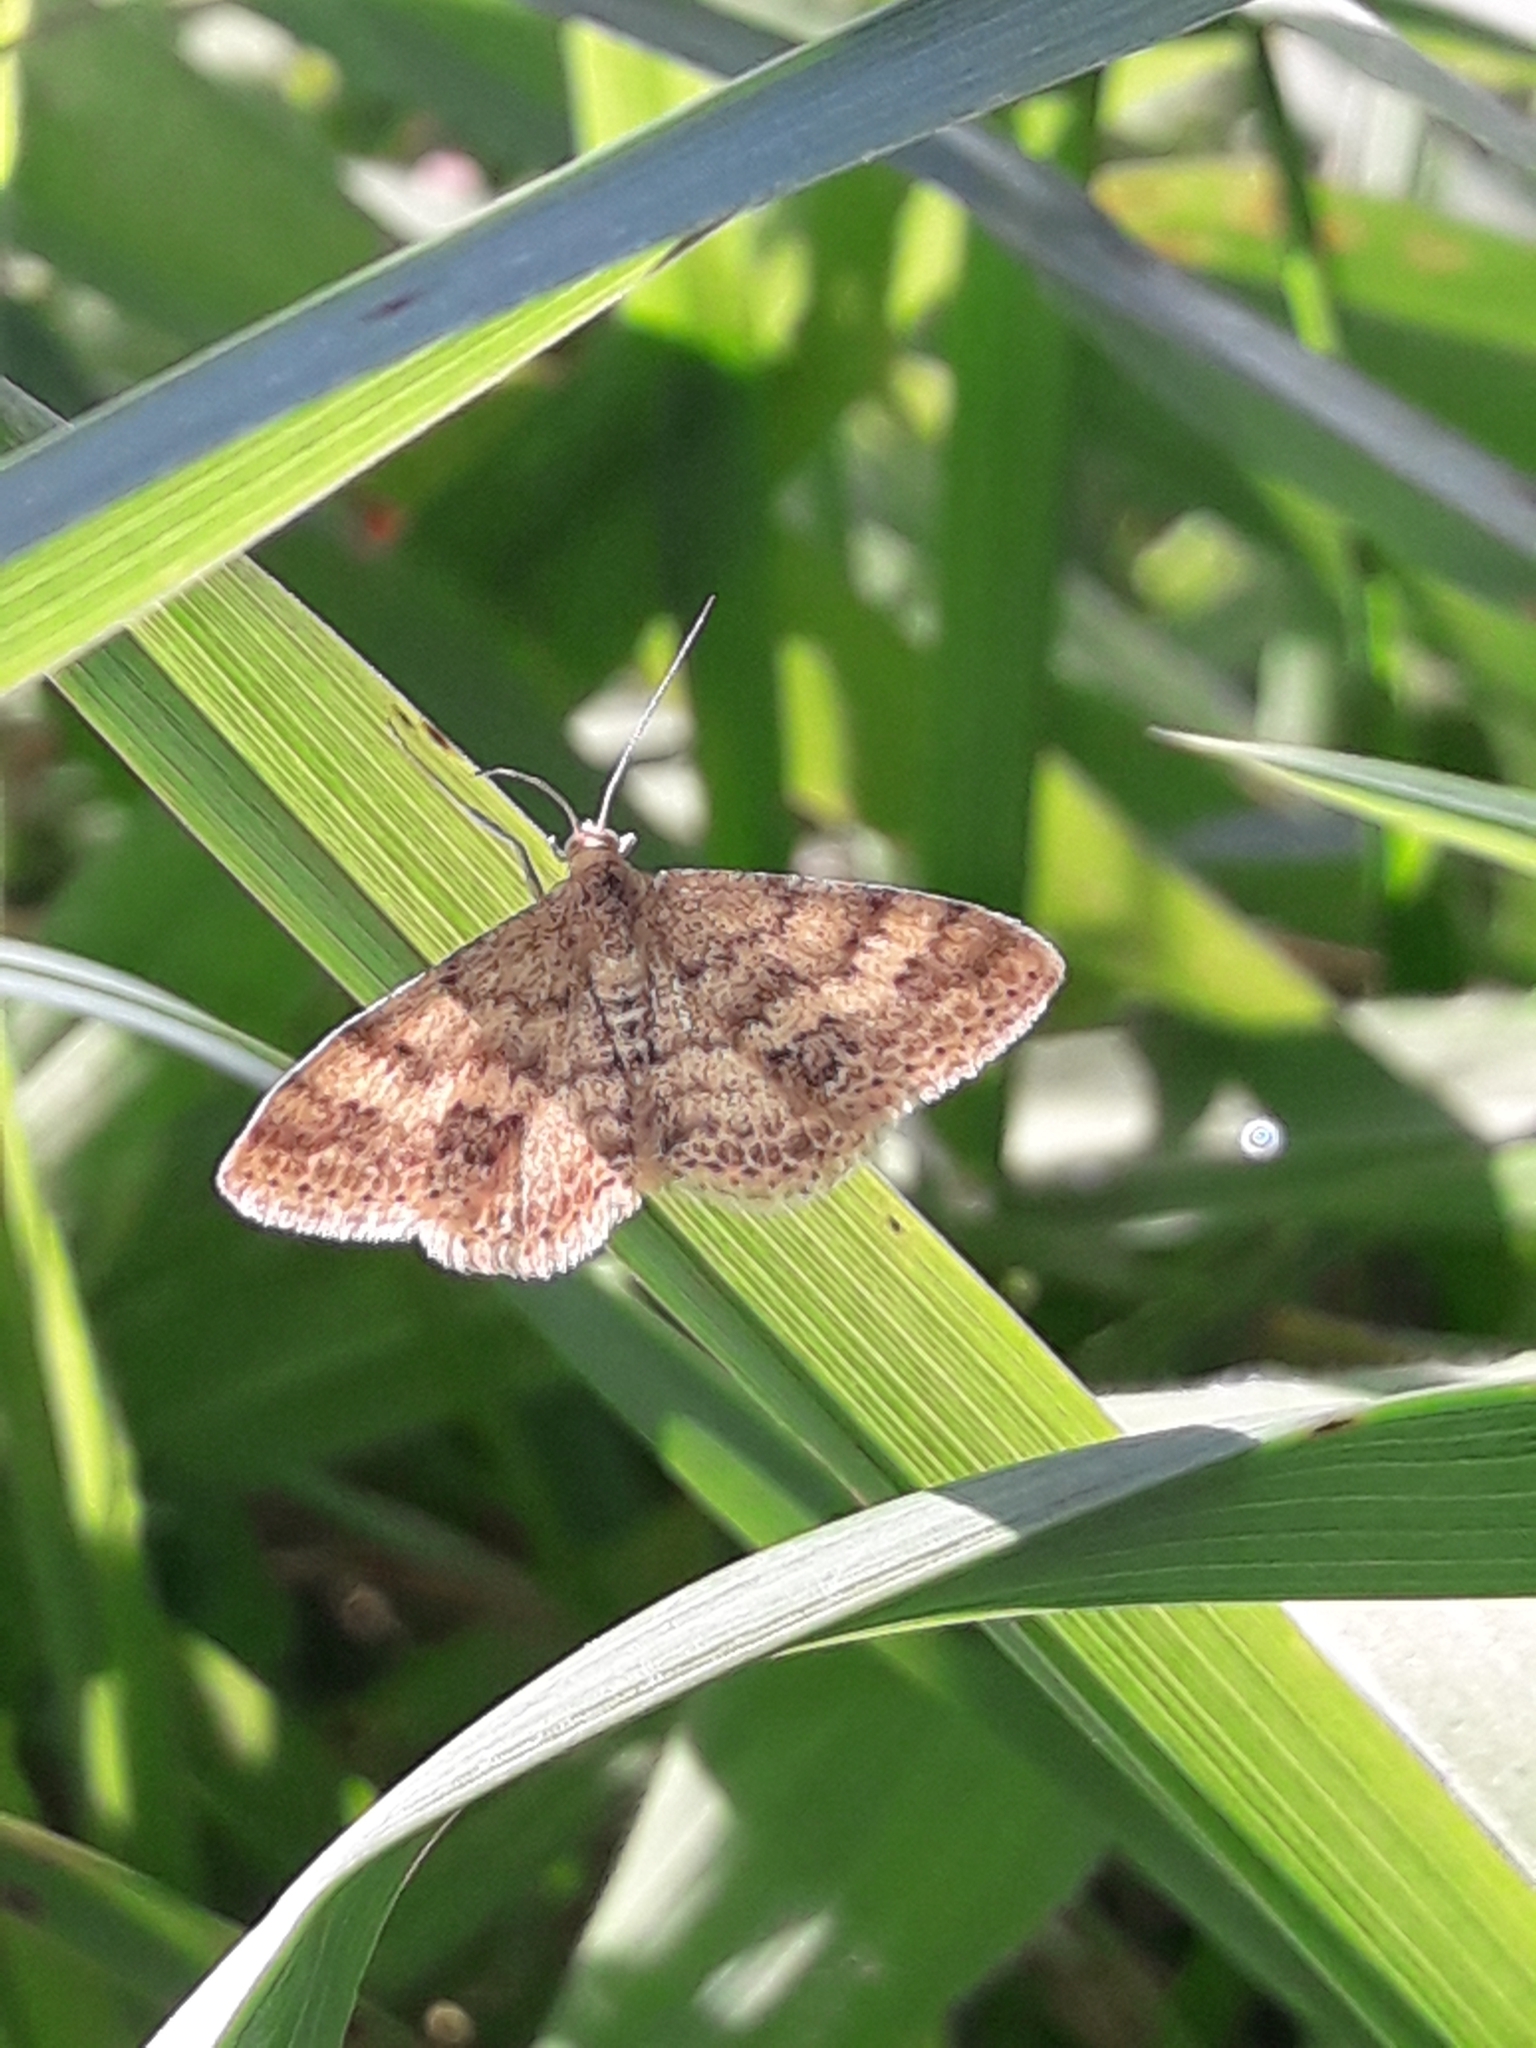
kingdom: Animalia
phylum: Arthropoda
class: Insecta
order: Lepidoptera
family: Geometridae
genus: Scopula
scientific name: Scopula rubraria
